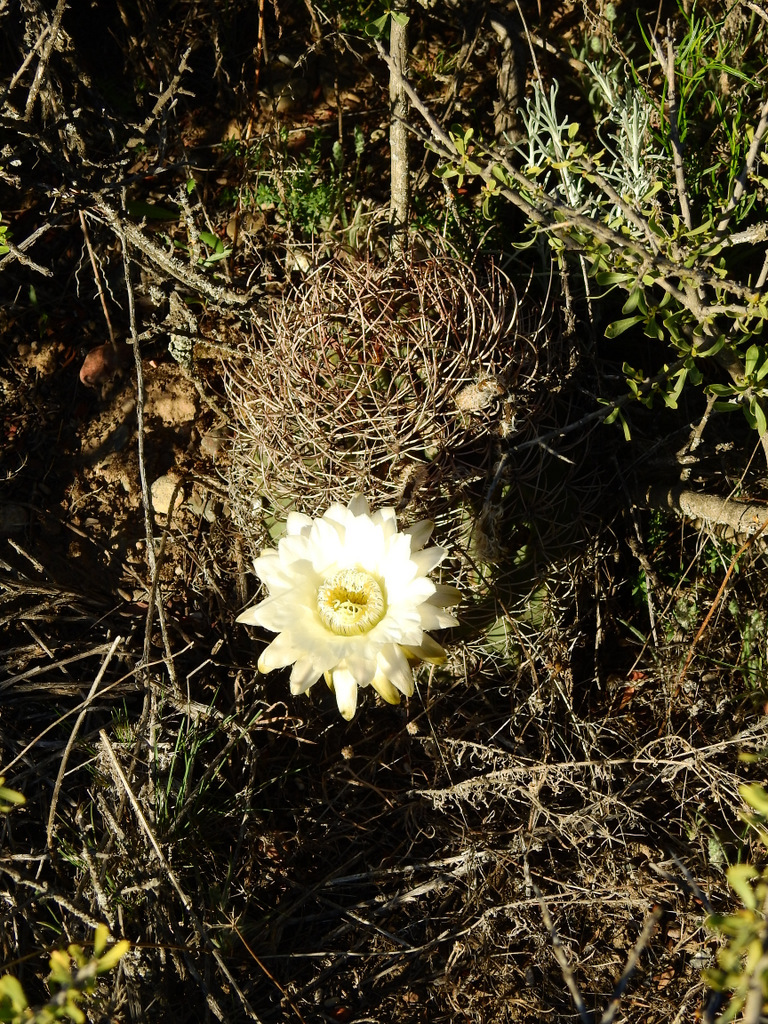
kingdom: Plantae
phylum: Tracheophyta
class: Magnoliopsida
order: Caryophyllales
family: Cactaceae
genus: Acanthocalycium
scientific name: Acanthocalycium leucanthum
